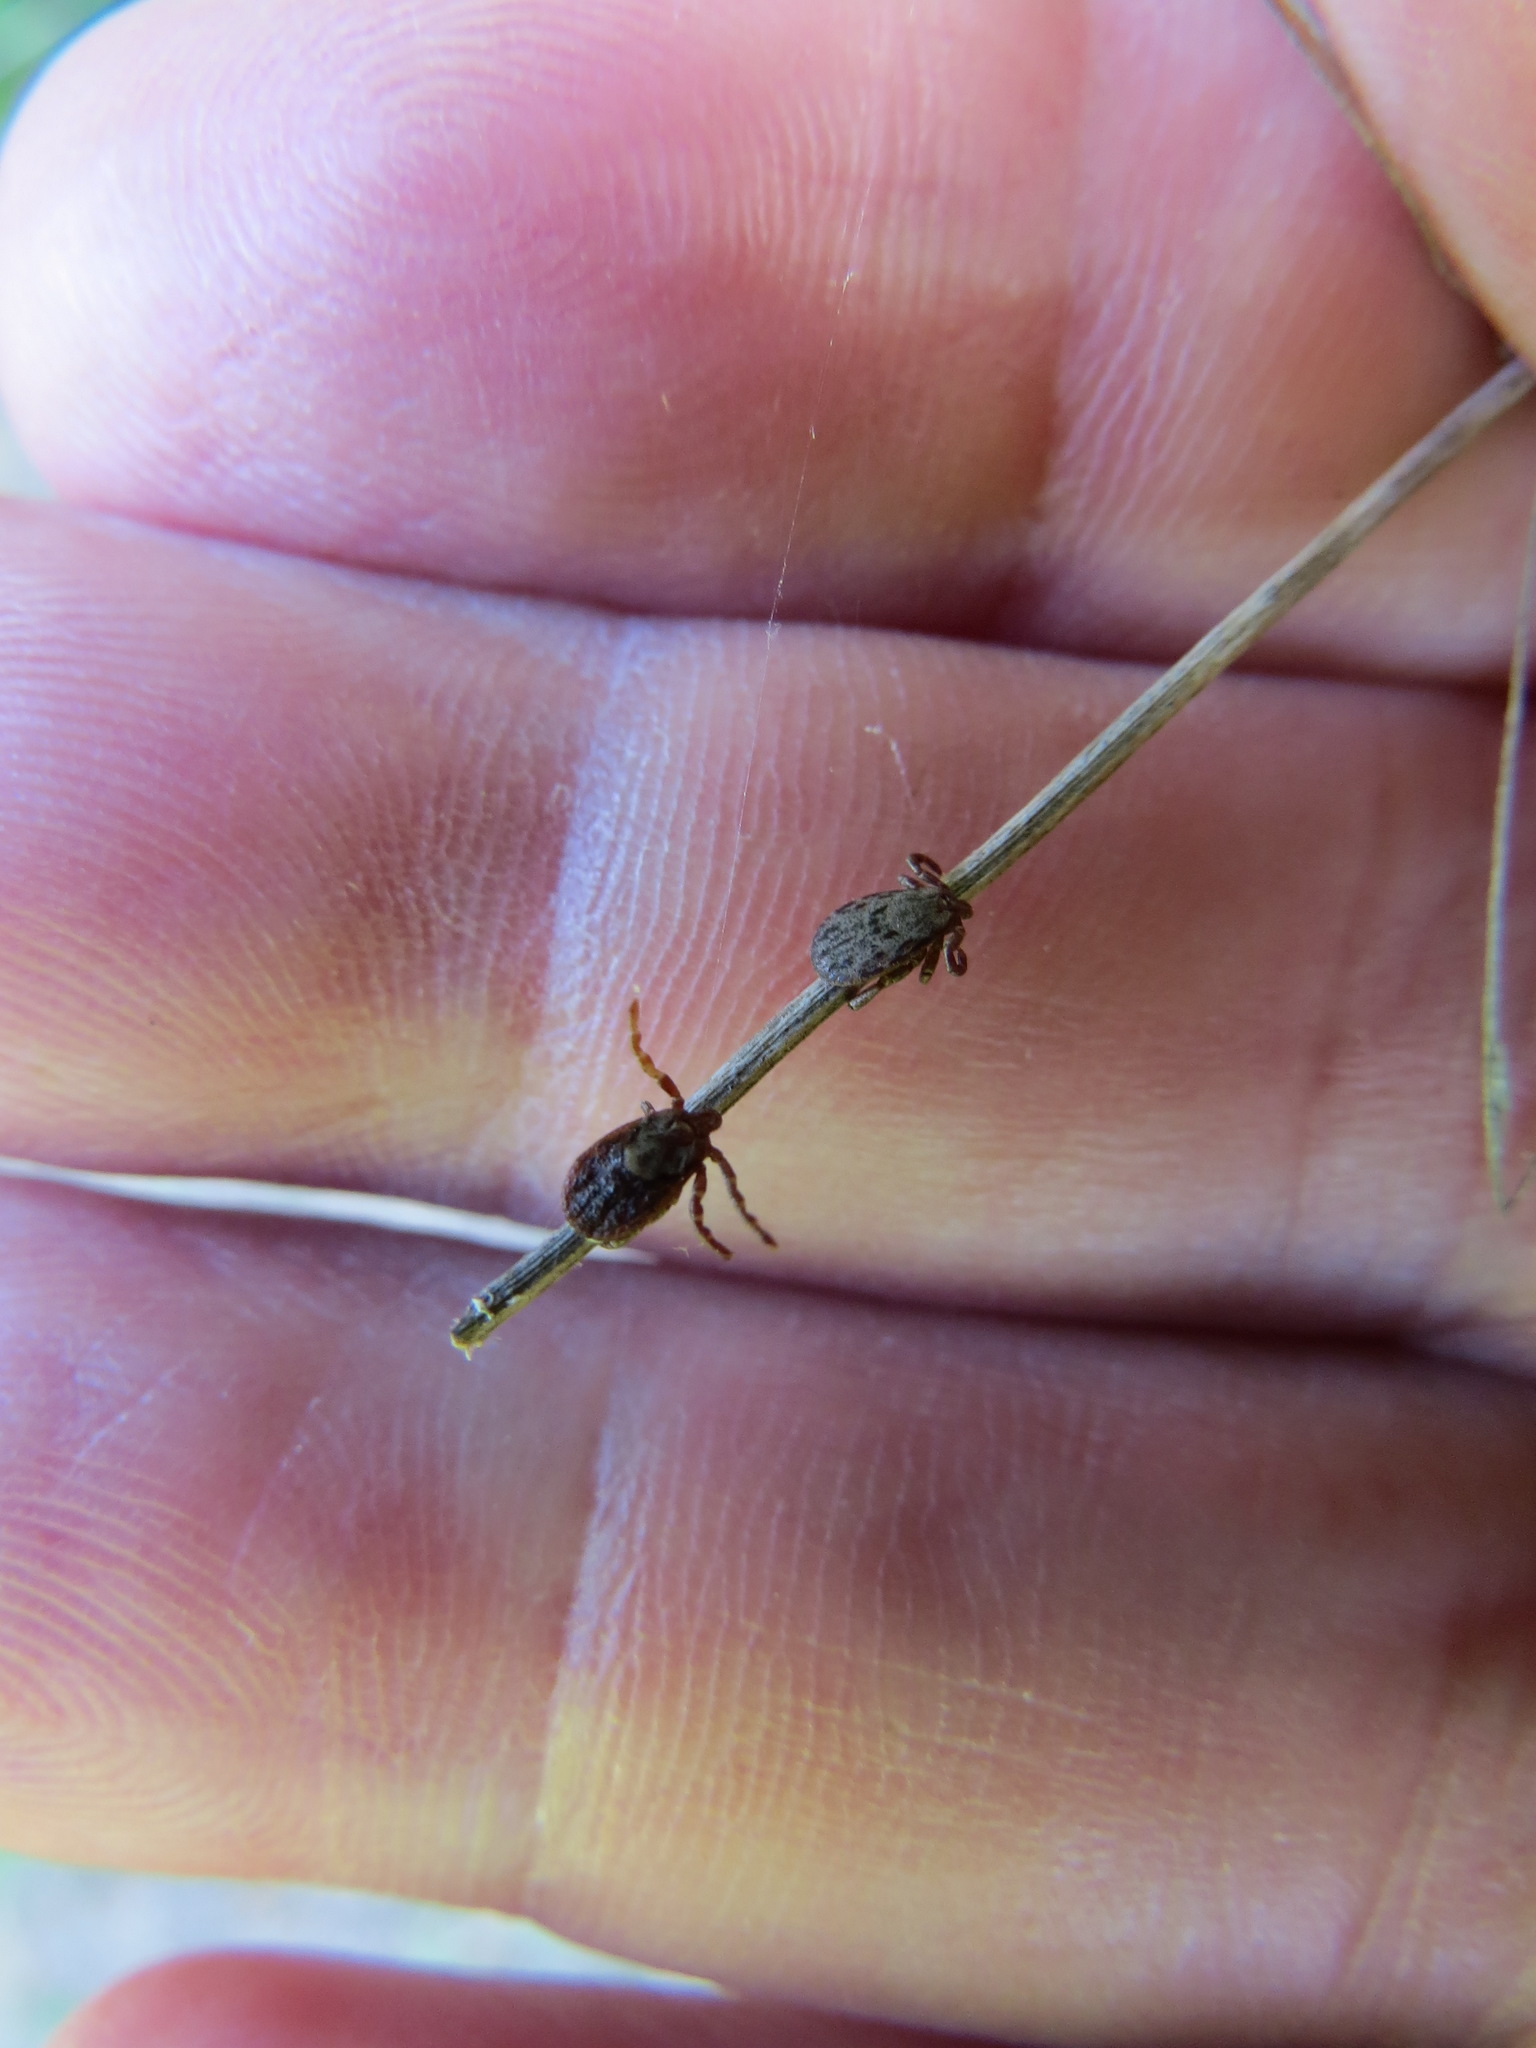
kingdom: Animalia
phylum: Arthropoda
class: Arachnida
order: Ixodida
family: Ixodidae
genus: Dermacentor
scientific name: Dermacentor occidentalis
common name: Net tick
